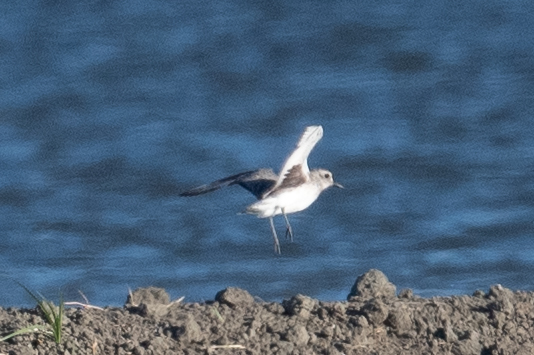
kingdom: Animalia
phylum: Chordata
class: Aves
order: Charadriiformes
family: Charadriidae
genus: Pluvialis
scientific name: Pluvialis squatarola
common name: Grey plover
